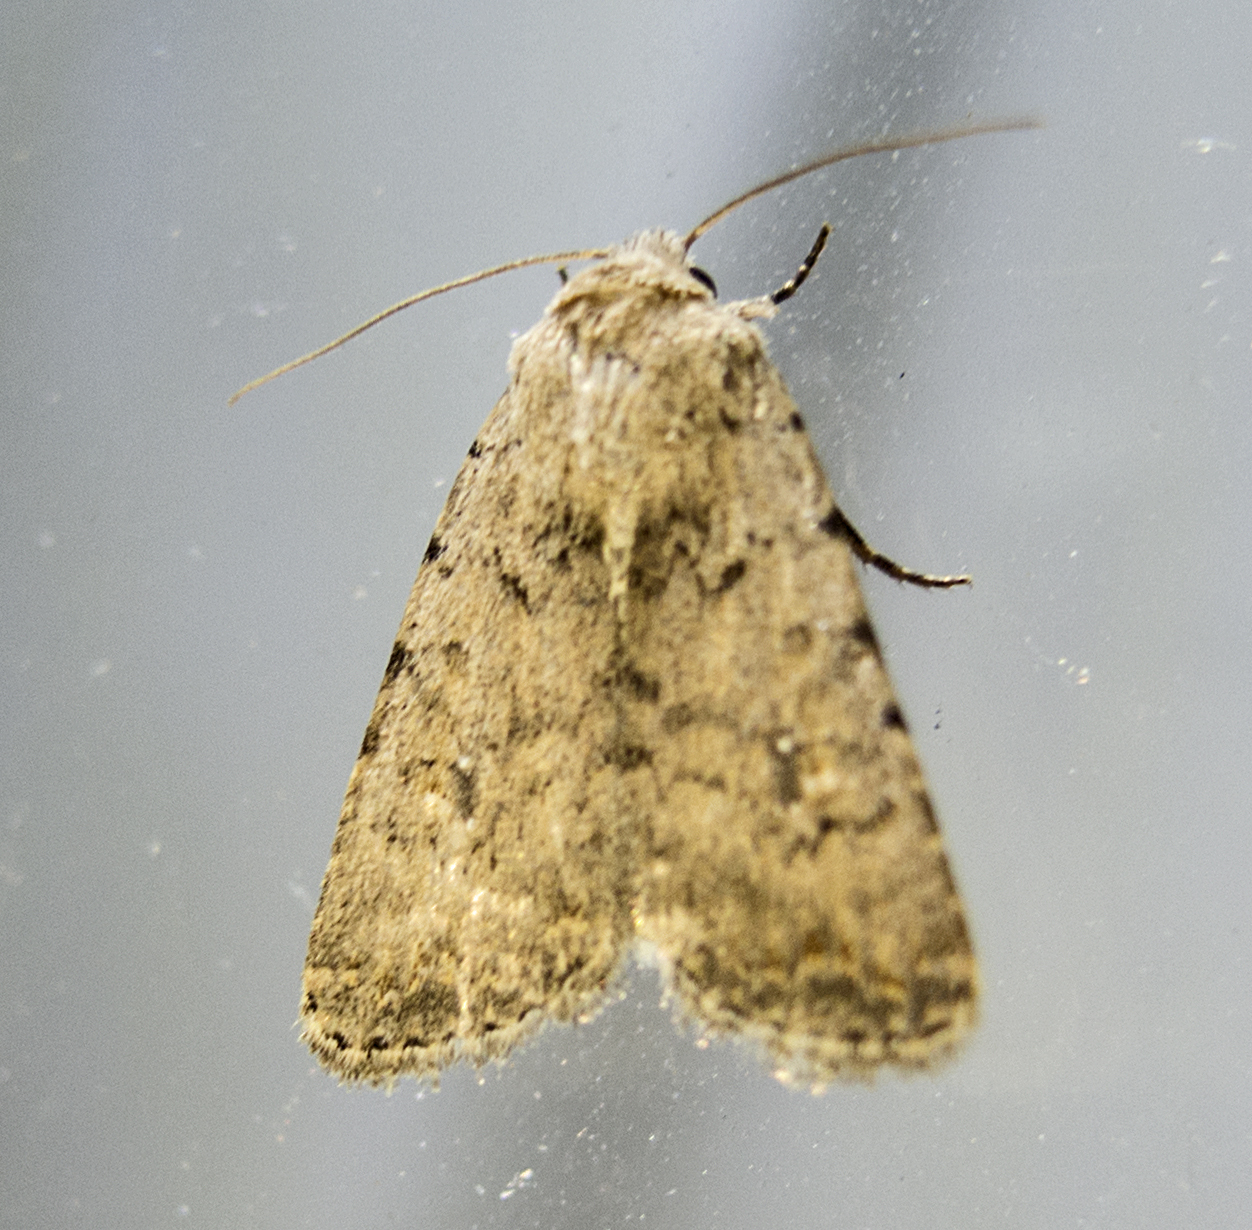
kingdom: Animalia
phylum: Arthropoda
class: Insecta
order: Lepidoptera
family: Noctuidae
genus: Caradrina
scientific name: Caradrina
